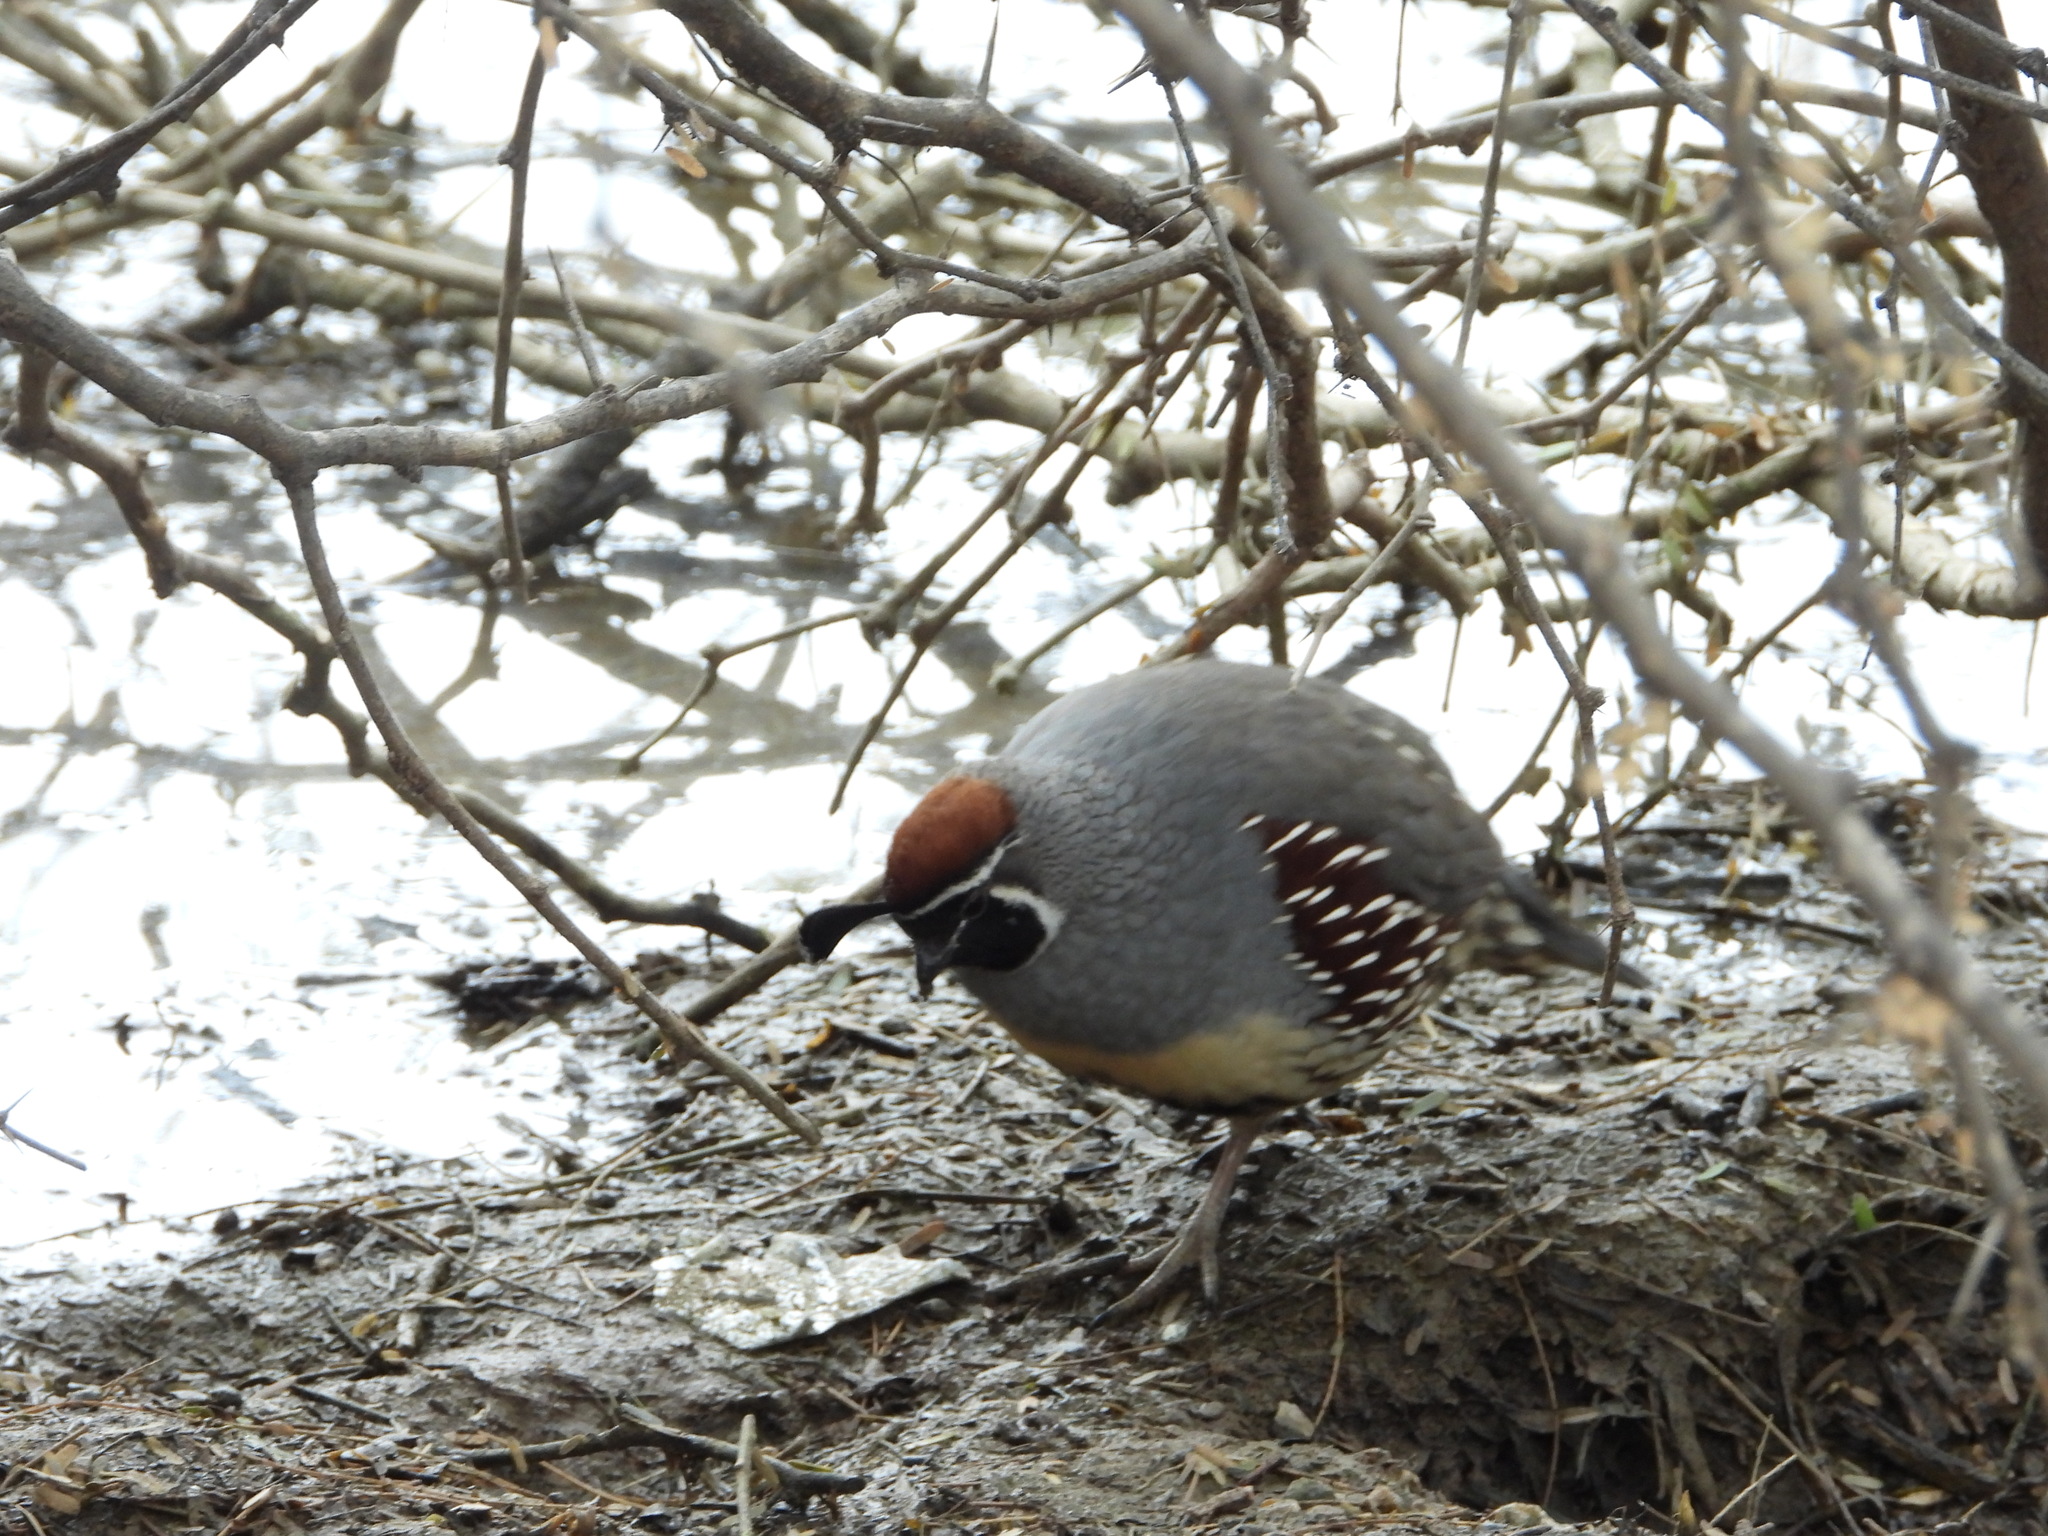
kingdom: Animalia
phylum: Chordata
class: Aves
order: Galliformes
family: Odontophoridae
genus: Callipepla
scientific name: Callipepla gambelii
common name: Gambel's quail
